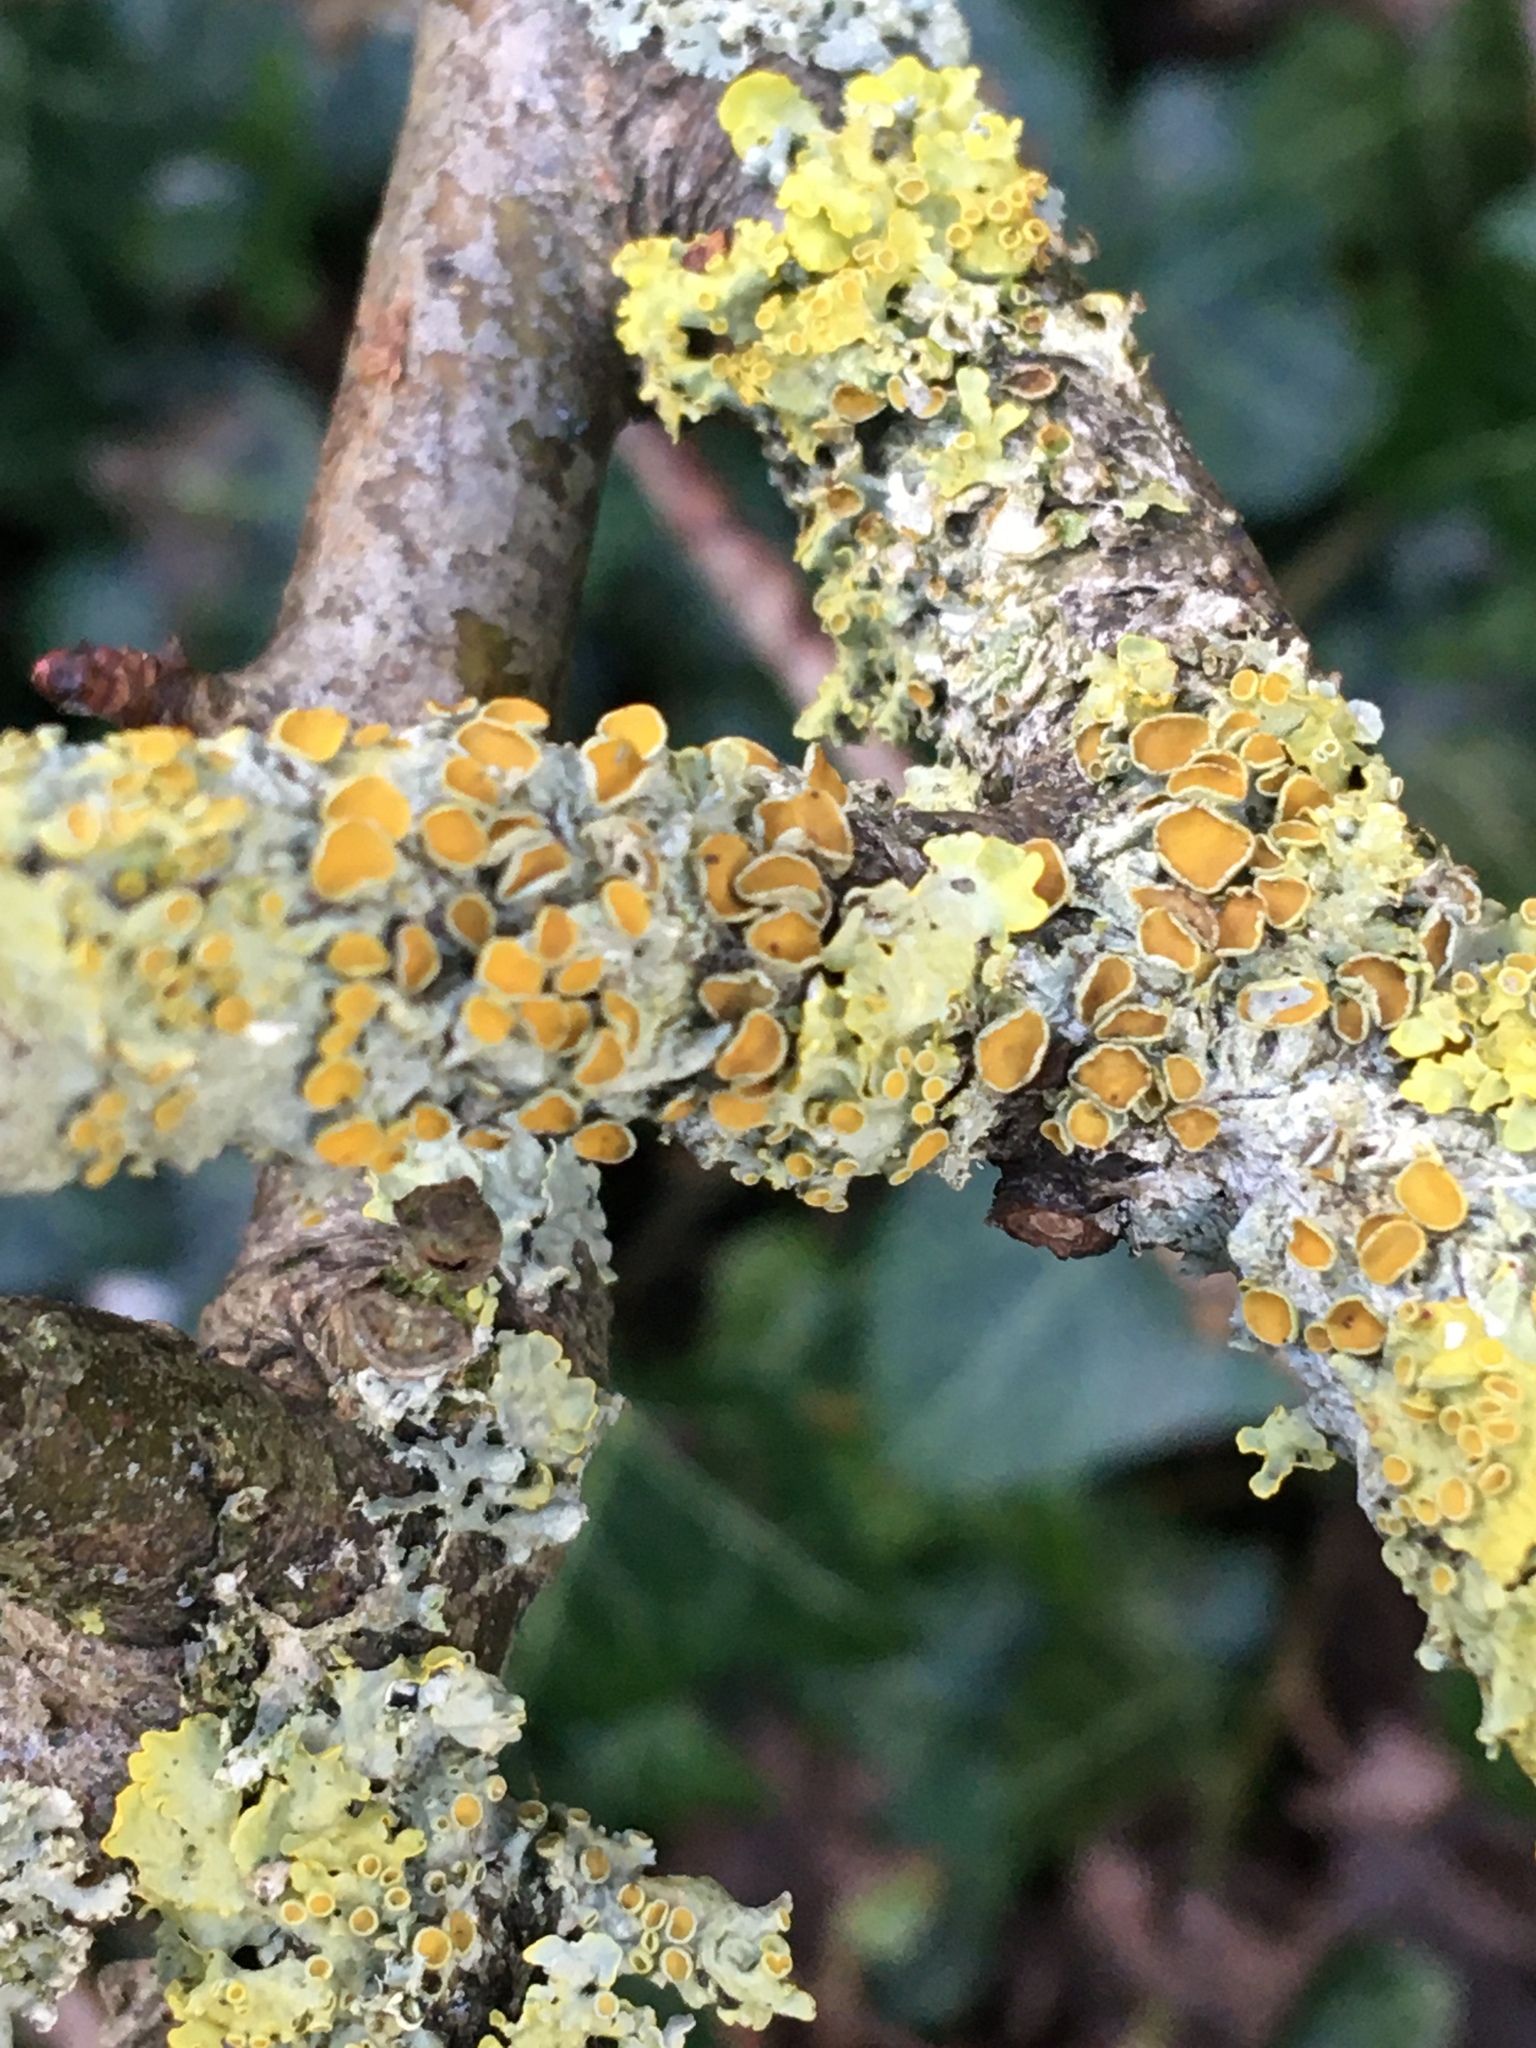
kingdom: Fungi
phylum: Ascomycota
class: Lecanoromycetes
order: Teloschistales
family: Teloschistaceae
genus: Xanthoria
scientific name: Xanthoria parietina
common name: Common orange lichen
